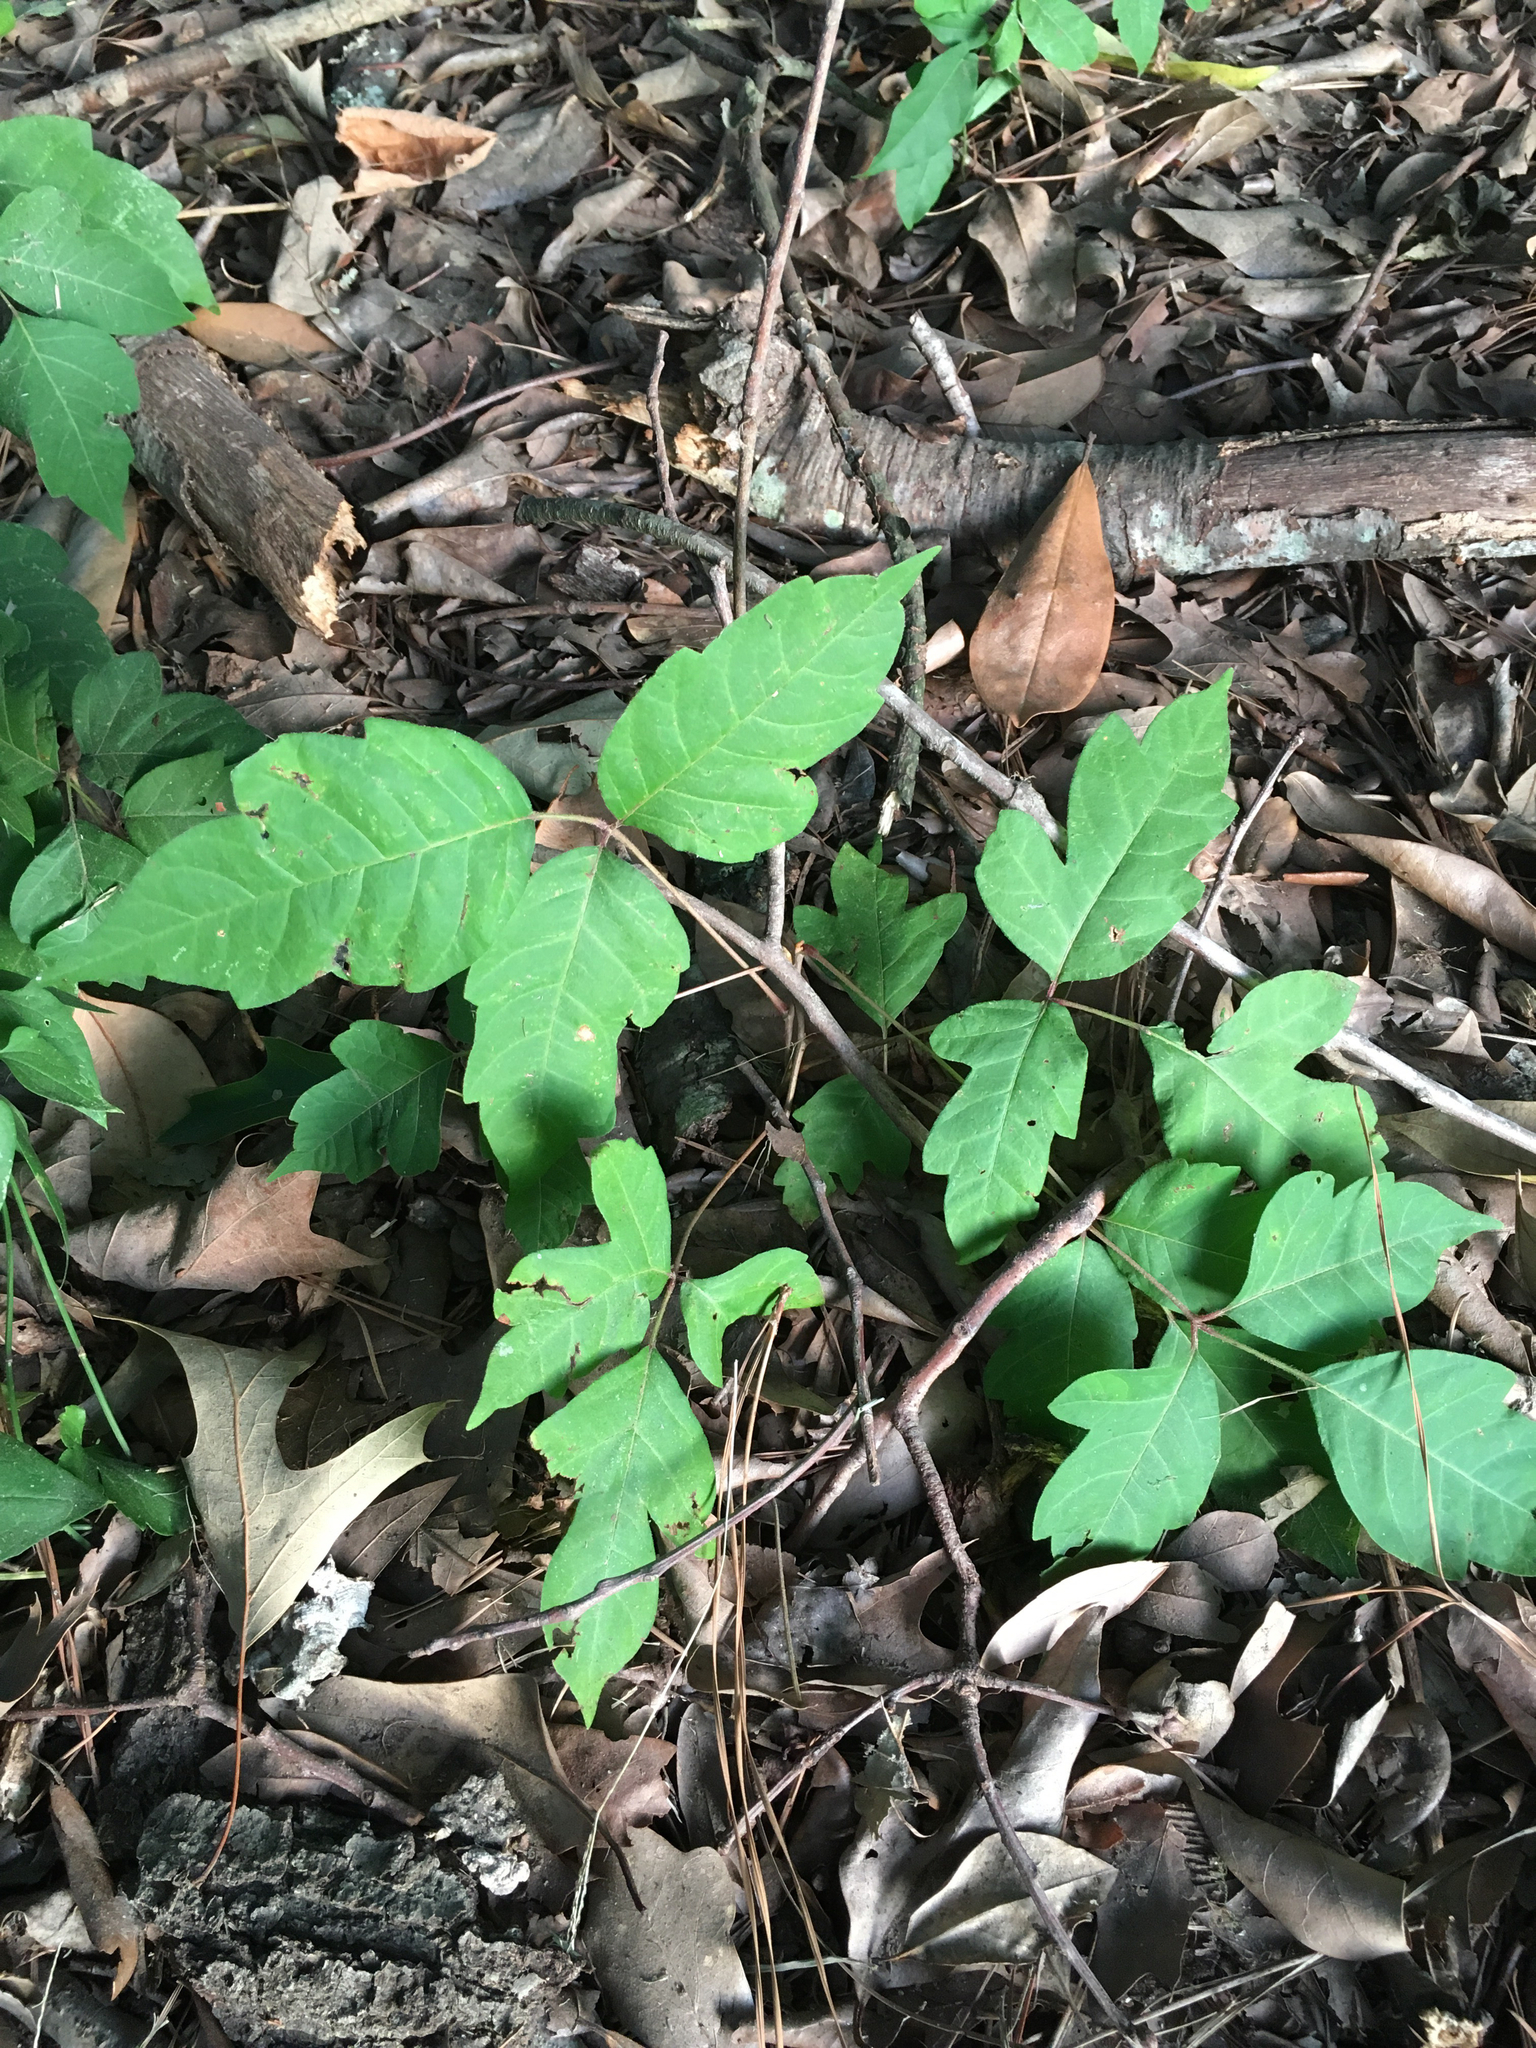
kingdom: Plantae
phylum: Tracheophyta
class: Magnoliopsida
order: Sapindales
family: Anacardiaceae
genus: Toxicodendron
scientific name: Toxicodendron radicans
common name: Poison ivy
